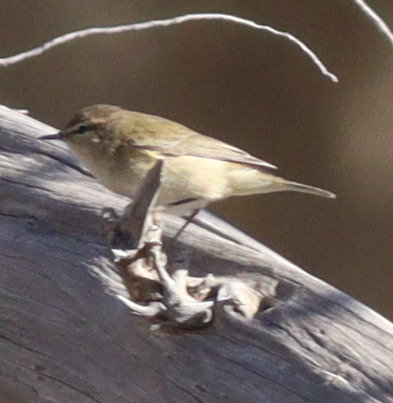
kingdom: Animalia
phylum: Chordata
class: Aves
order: Passeriformes
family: Phylloscopidae
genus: Phylloscopus
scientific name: Phylloscopus collybita
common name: Common chiffchaff
